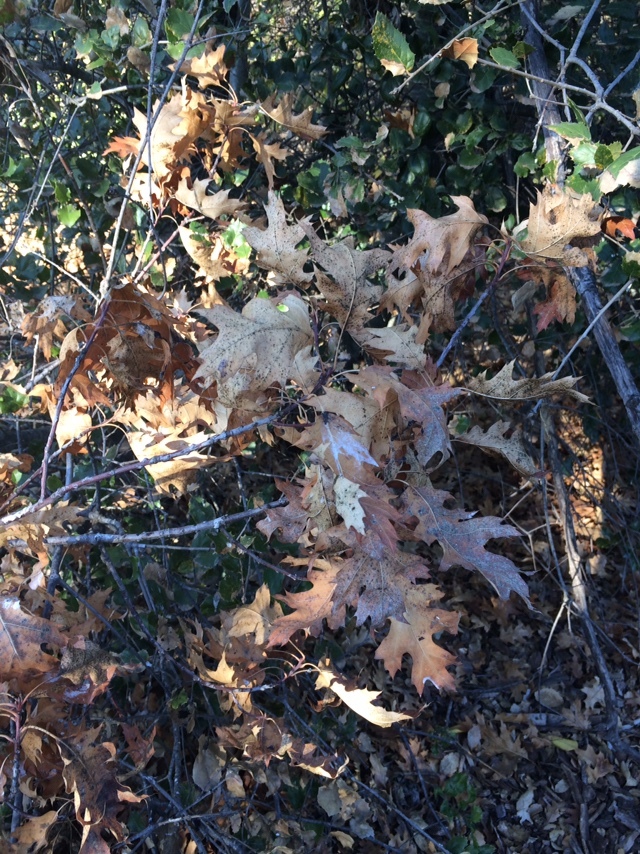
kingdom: Plantae
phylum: Tracheophyta
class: Magnoliopsida
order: Fagales
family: Fagaceae
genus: Quercus
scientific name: Quercus kelloggii
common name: California black oak
